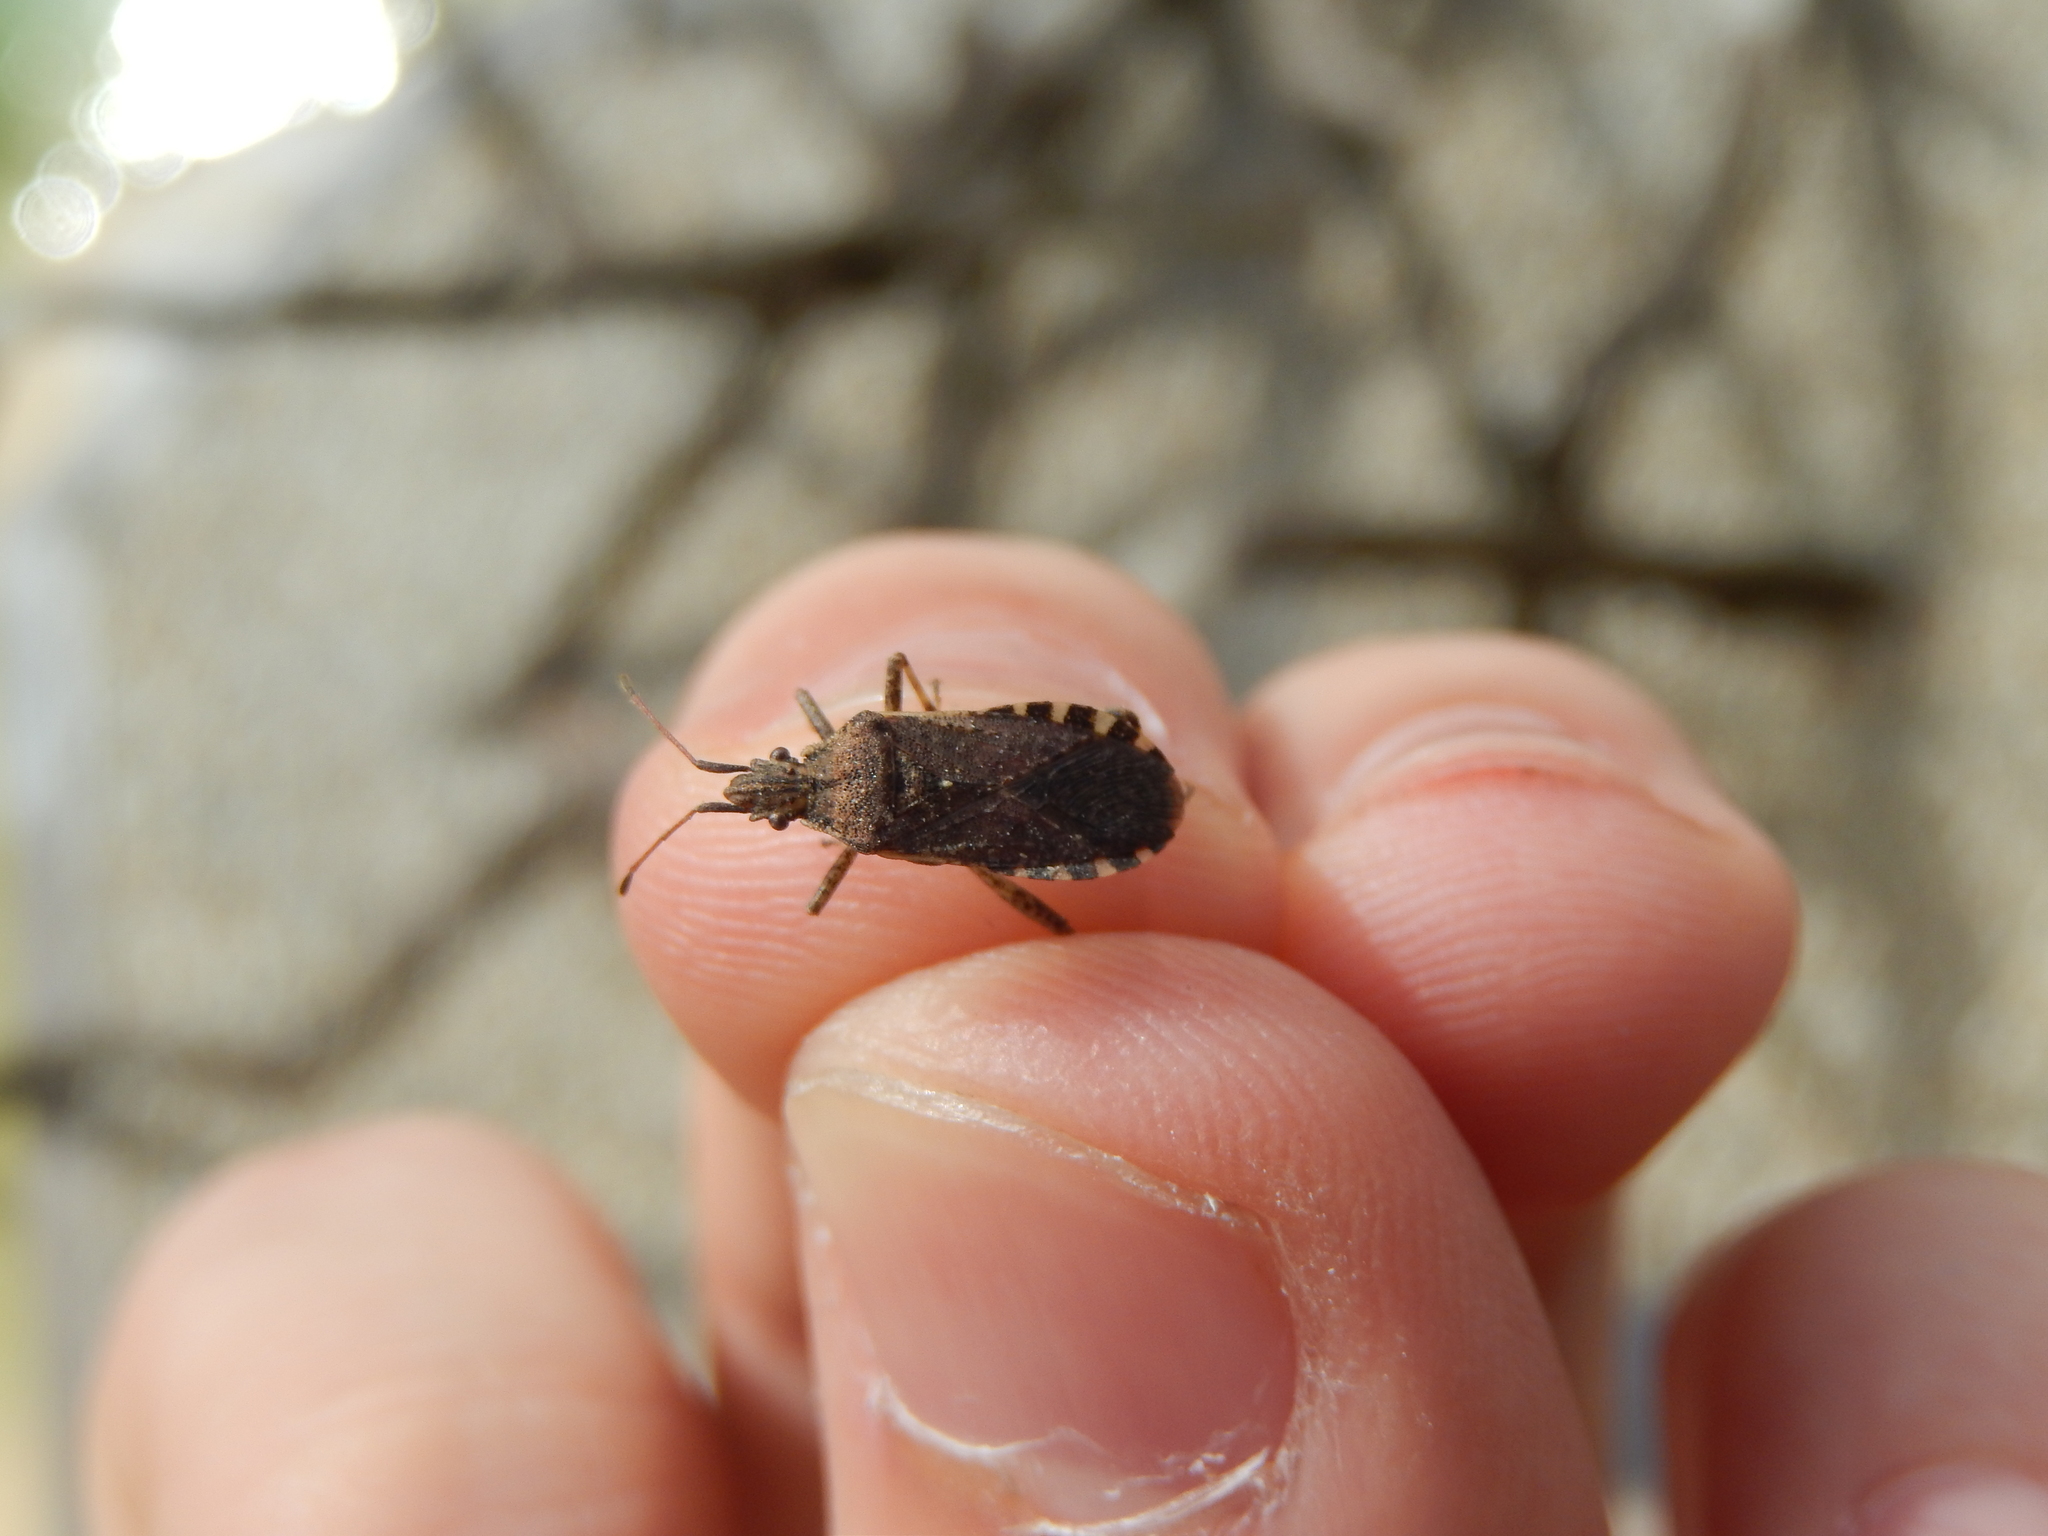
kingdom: Animalia
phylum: Arthropoda
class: Insecta
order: Hemiptera
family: Coreidae
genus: Ceraleptus
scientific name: Ceraleptus gracilicornis
